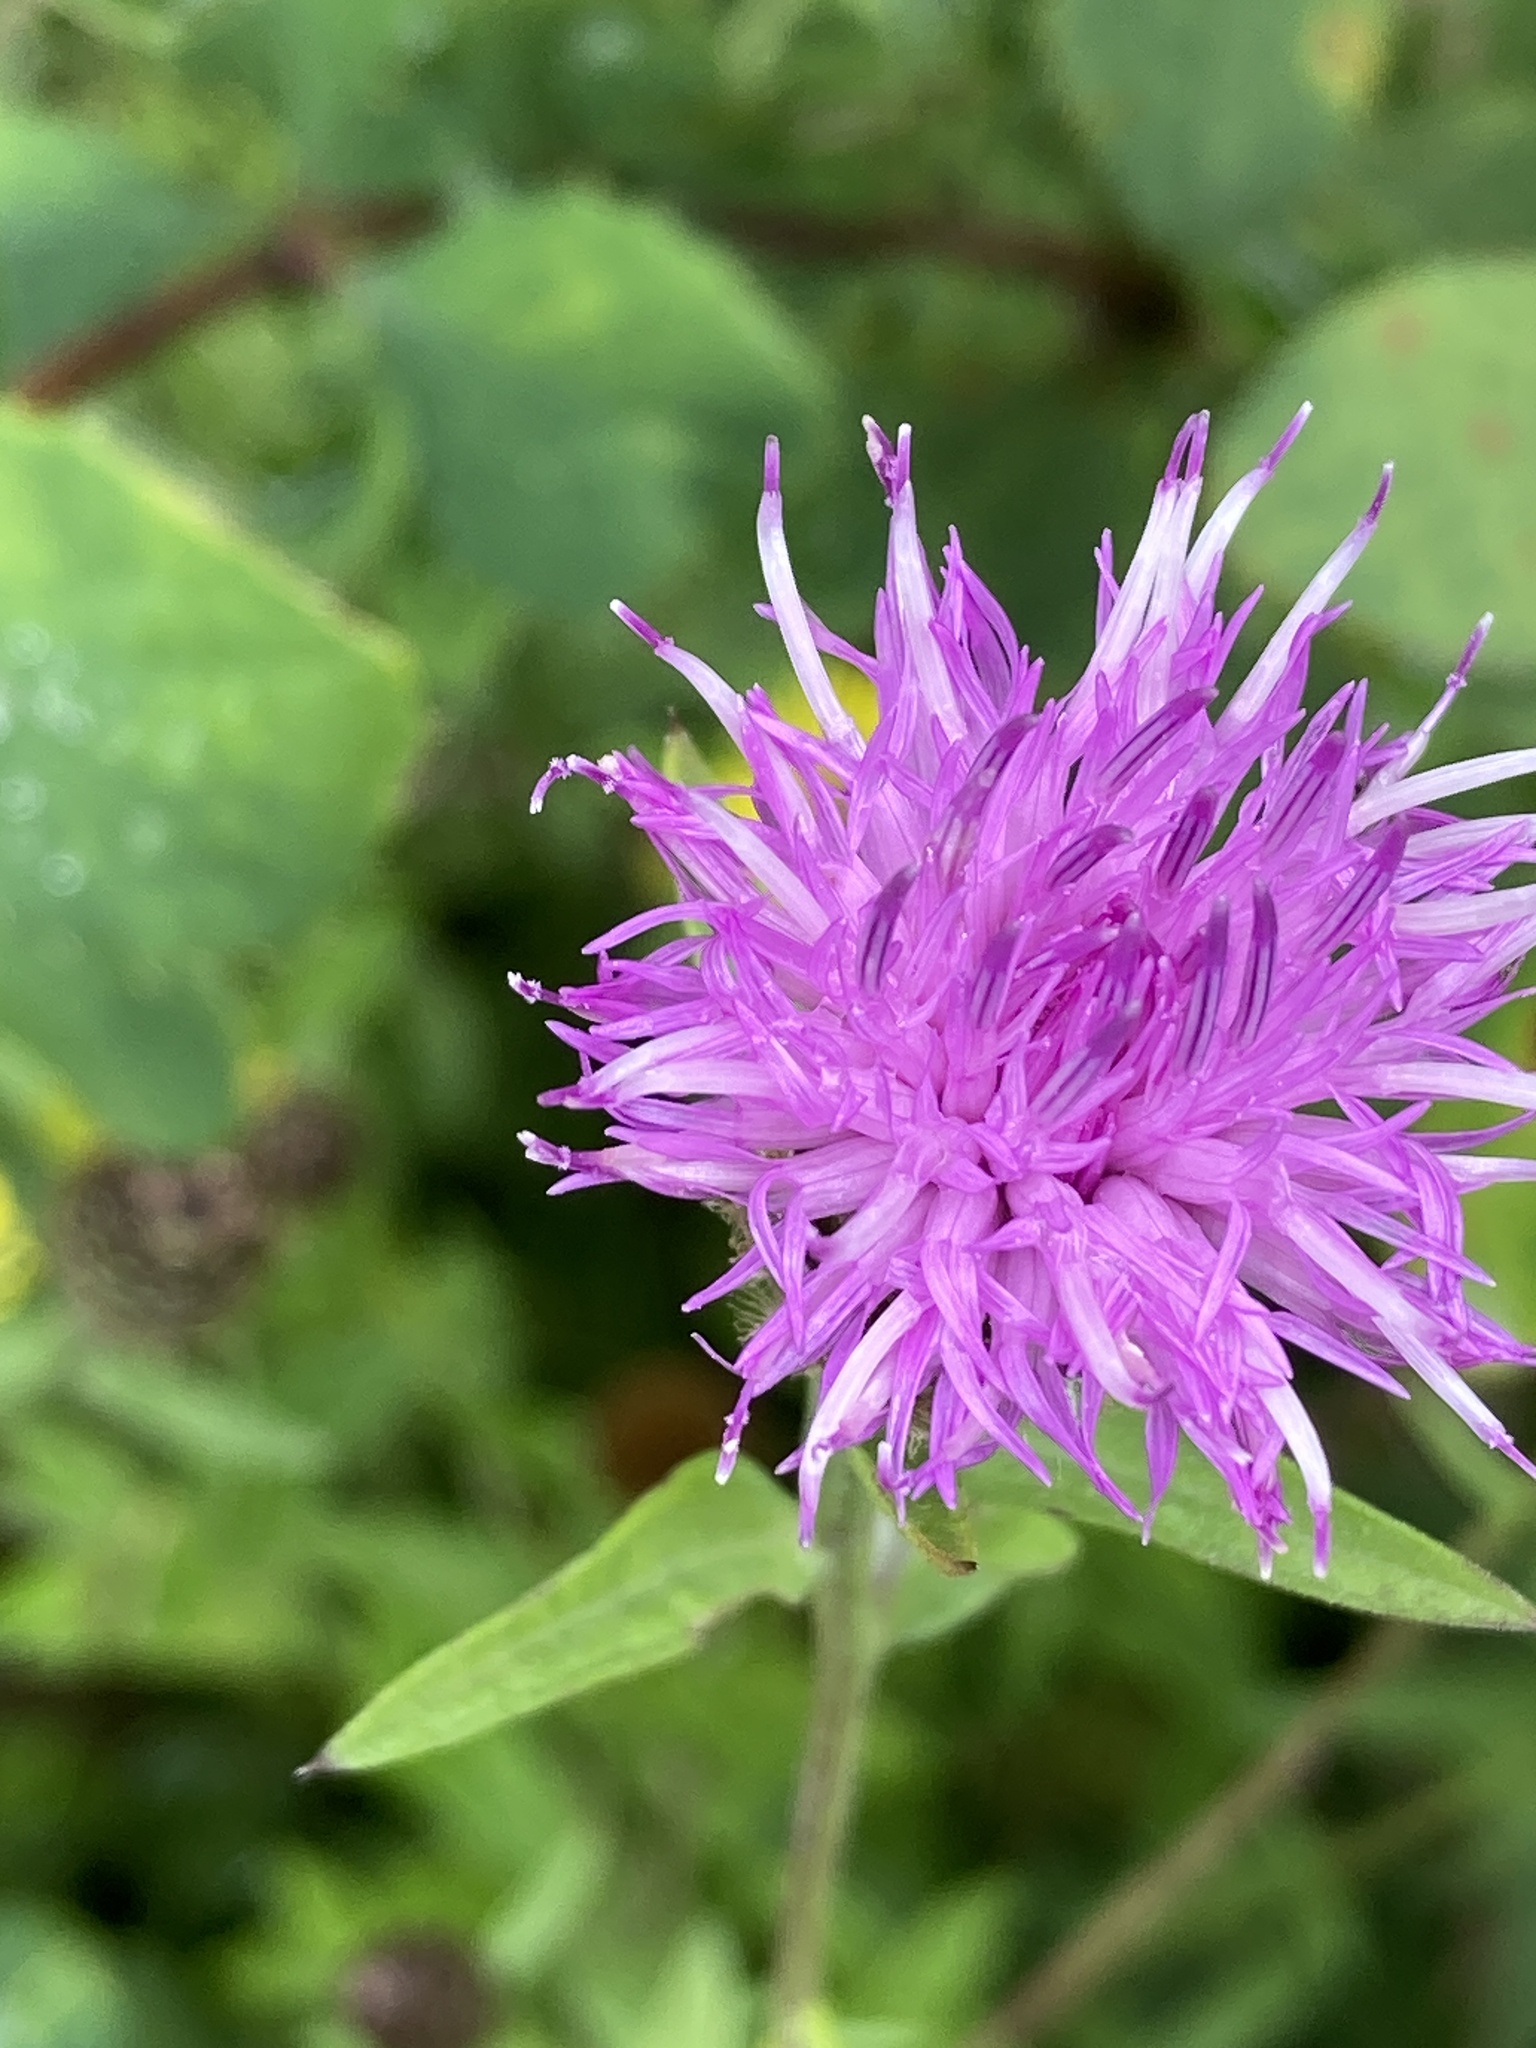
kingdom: Plantae
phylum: Tracheophyta
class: Magnoliopsida
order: Asterales
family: Asteraceae
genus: Centaurea
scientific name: Centaurea nigra
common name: Lesser knapweed
